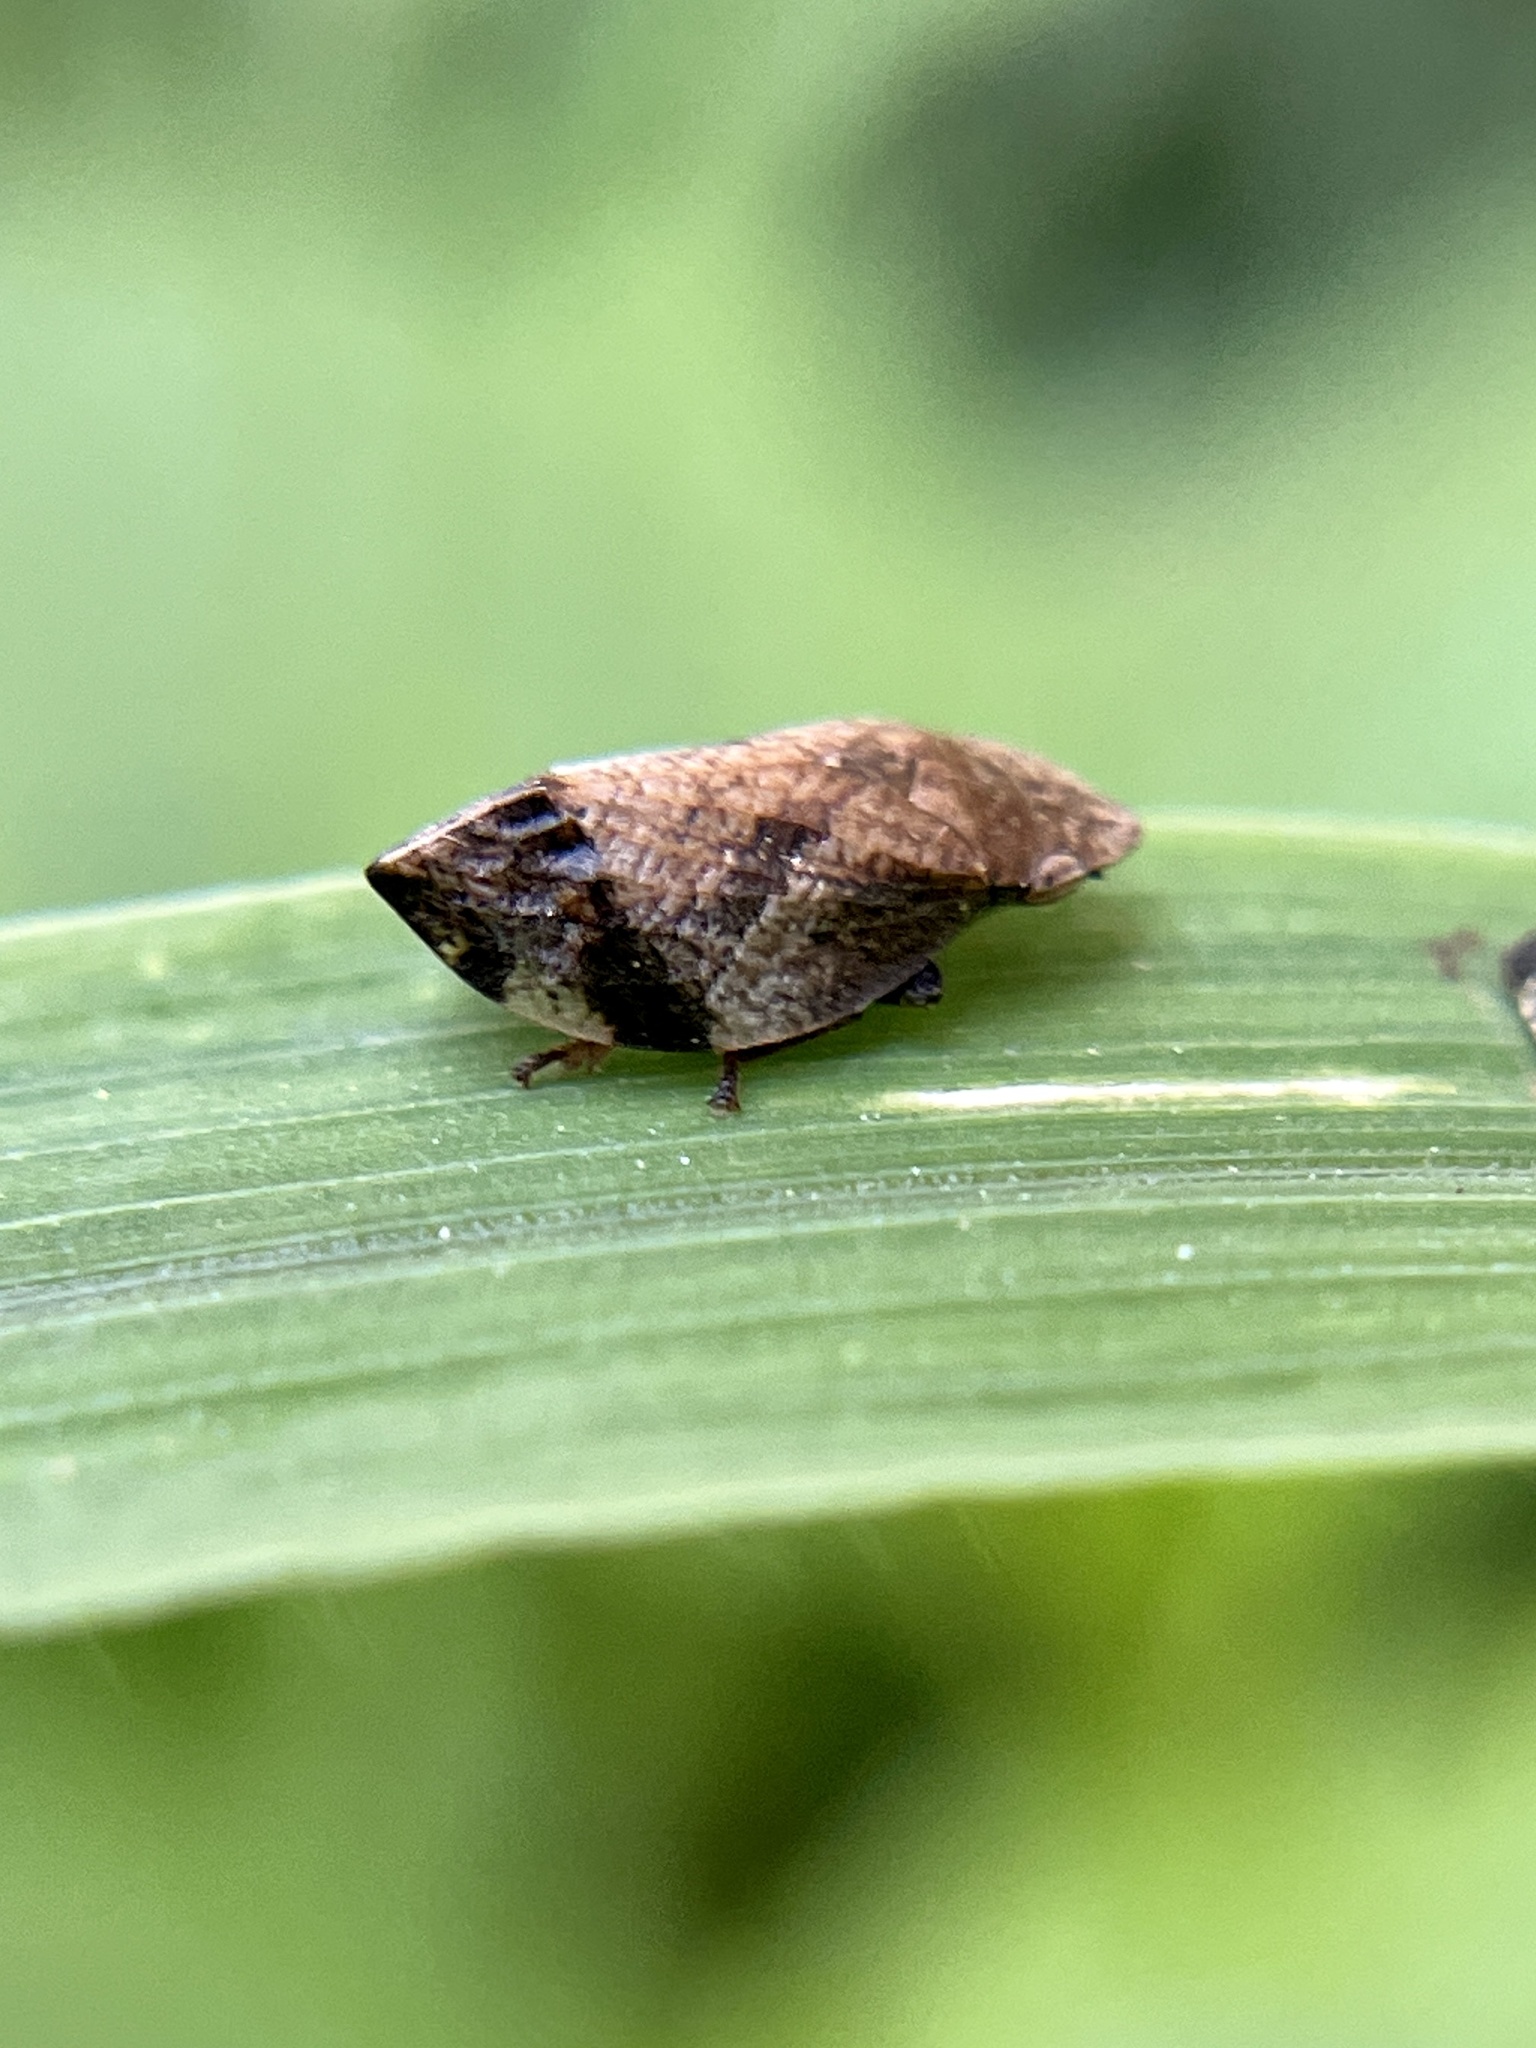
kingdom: Animalia
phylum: Arthropoda
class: Insecta
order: Hemiptera
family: Aphrophoridae
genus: Lepyronia
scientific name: Lepyronia quadrangularis
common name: Diamond-backed spittlebug
